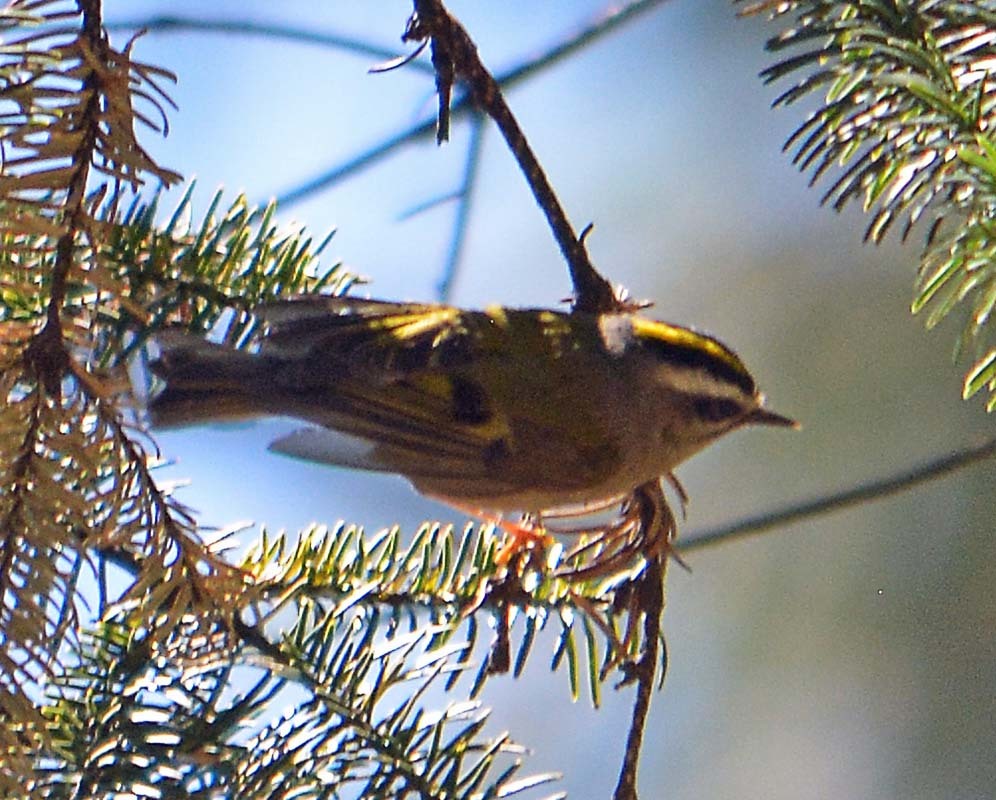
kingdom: Animalia
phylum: Chordata
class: Aves
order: Passeriformes
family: Regulidae
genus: Regulus
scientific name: Regulus satrapa
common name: Golden-crowned kinglet
